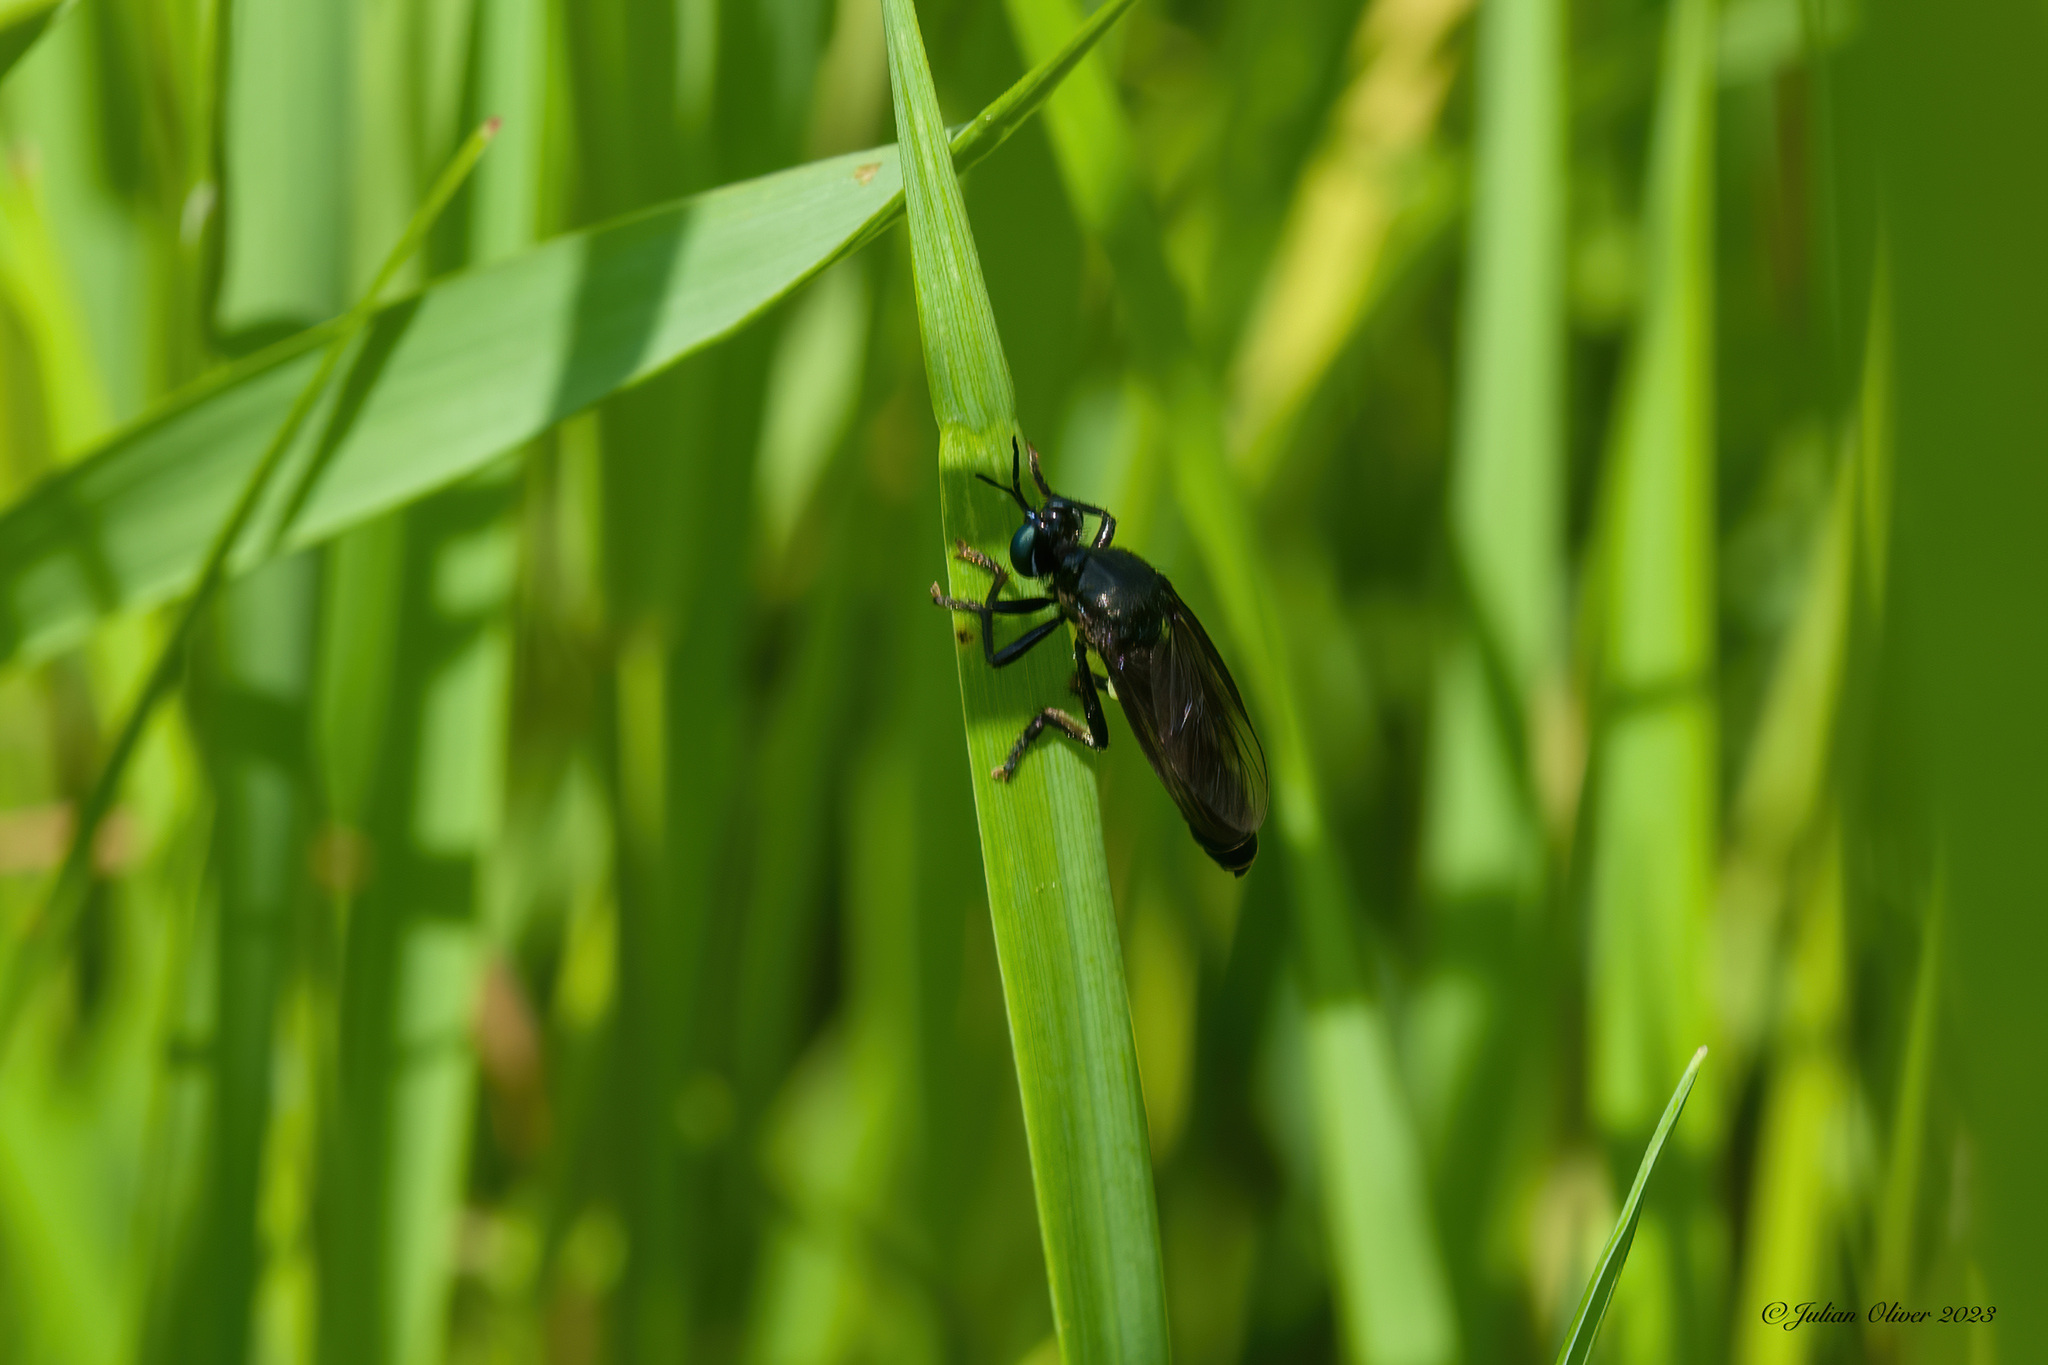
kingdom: Animalia
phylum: Arthropoda
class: Insecta
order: Diptera
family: Asilidae
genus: Dioctria
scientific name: Dioctria atricapilla
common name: Violet black-legged
